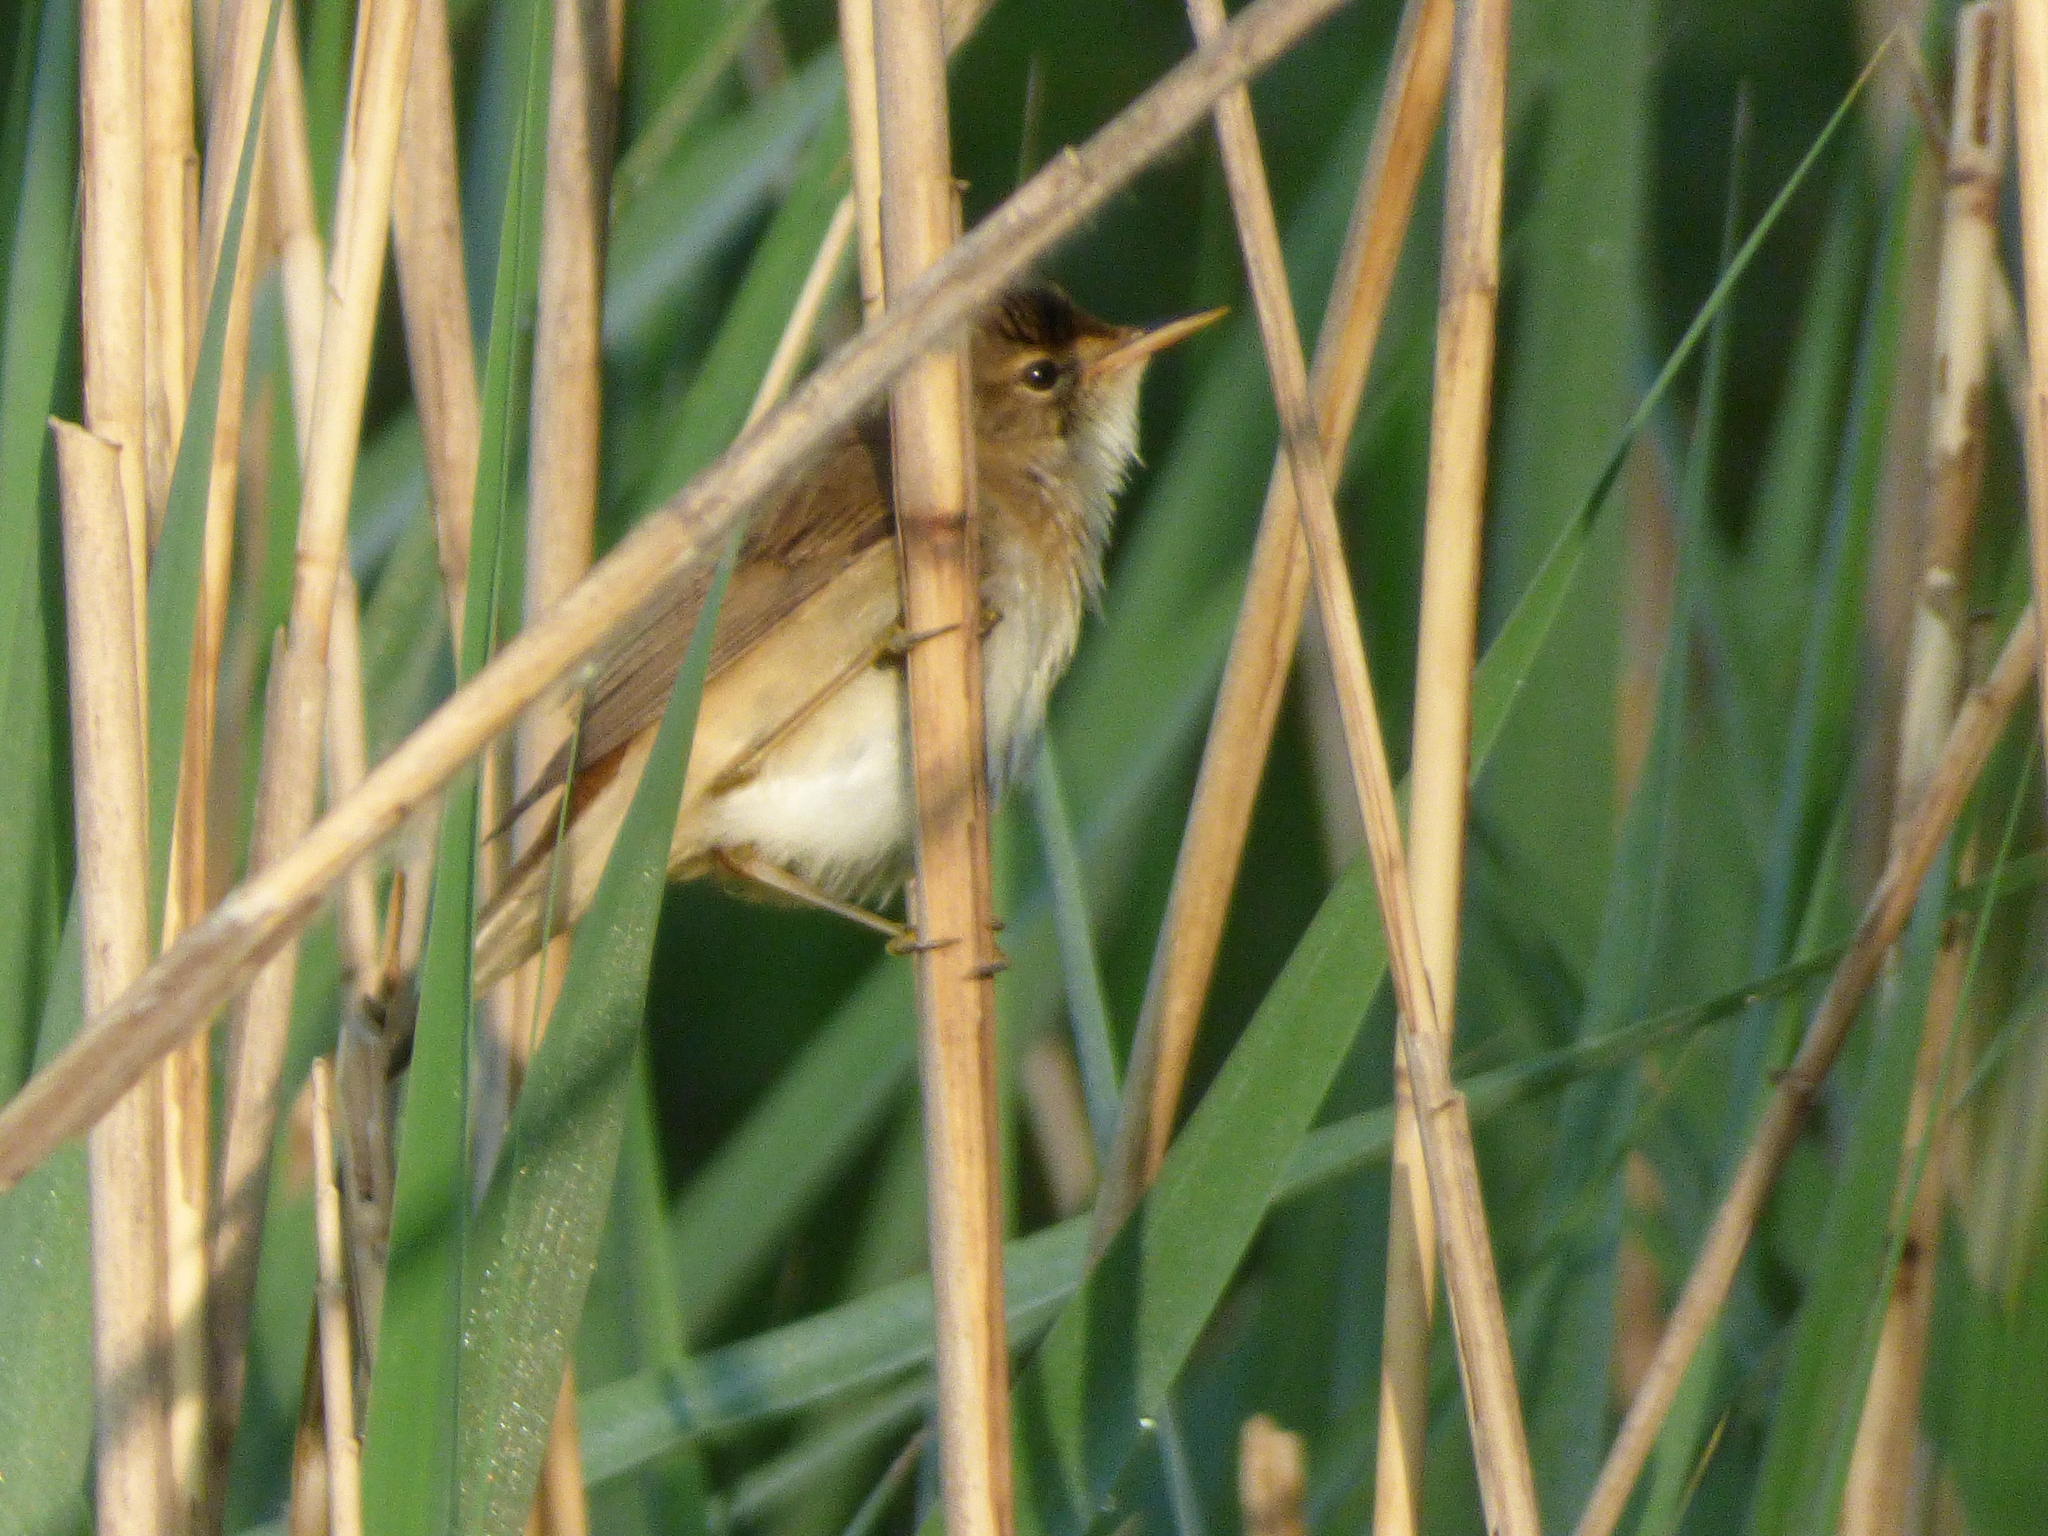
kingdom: Animalia
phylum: Chordata
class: Aves
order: Passeriformes
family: Acrocephalidae
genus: Acrocephalus
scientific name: Acrocephalus scirpaceus
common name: Eurasian reed warbler
